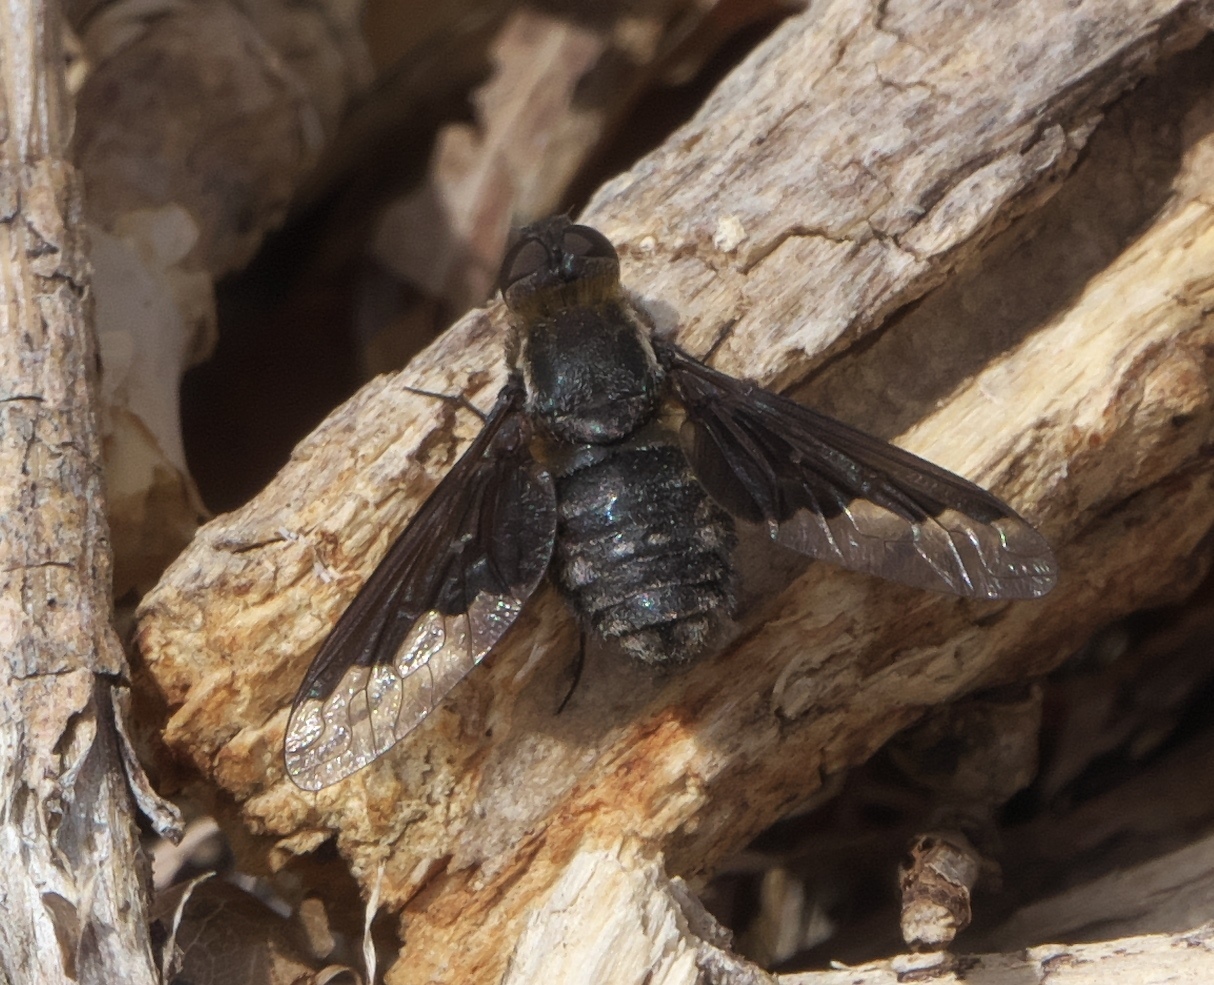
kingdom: Animalia
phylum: Arthropoda
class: Insecta
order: Diptera
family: Bombyliidae
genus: Hemipenthes
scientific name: Hemipenthes seminiger
